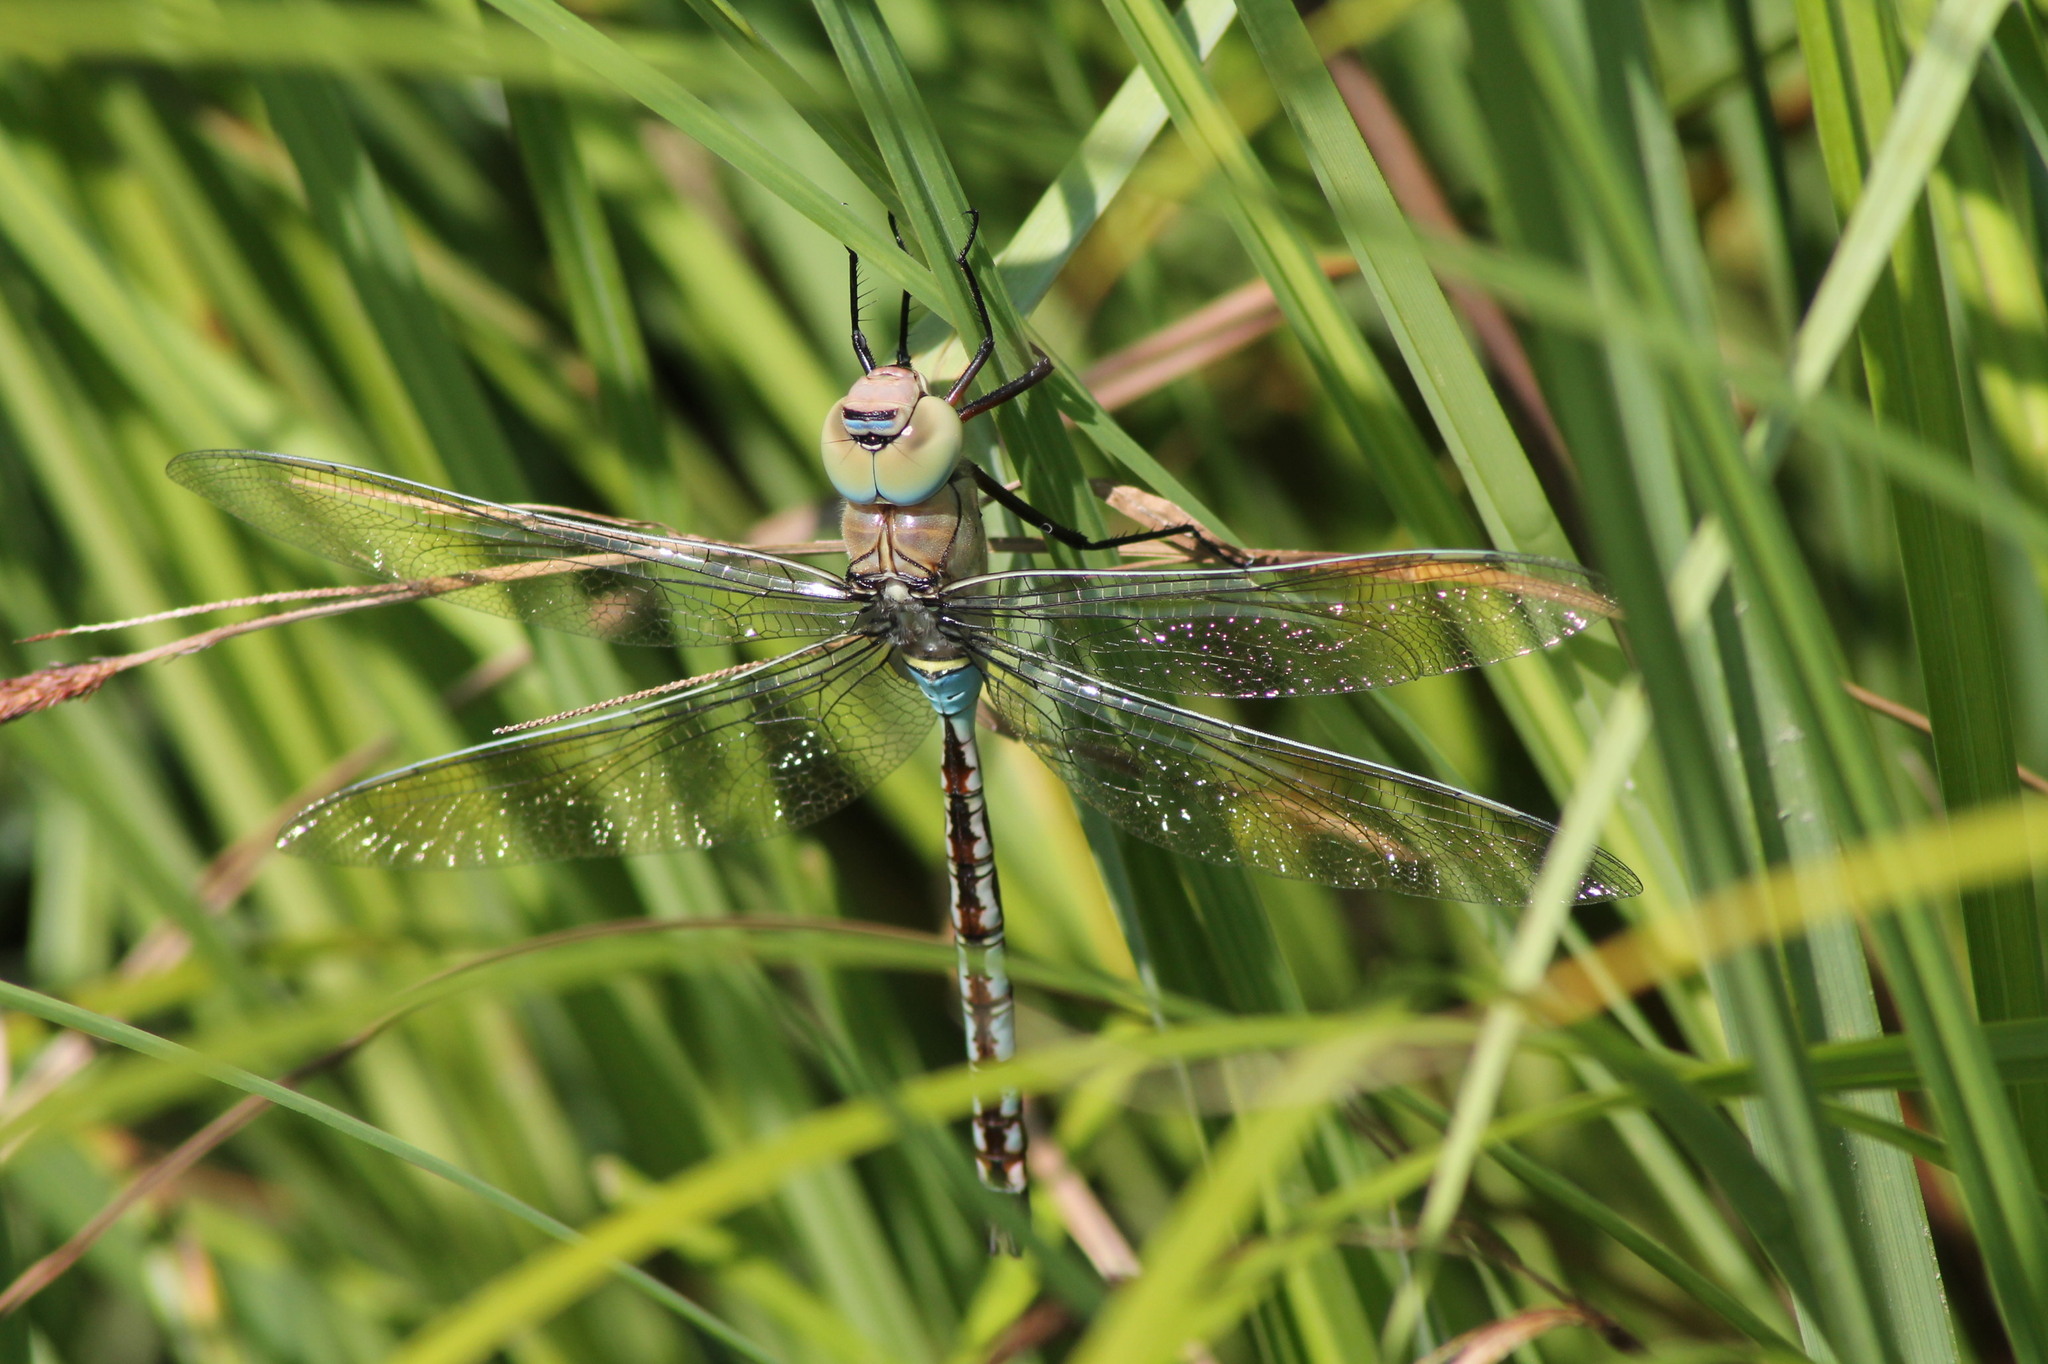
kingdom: Animalia
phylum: Arthropoda
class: Insecta
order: Odonata
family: Aeshnidae
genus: Anax
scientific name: Anax parthenope
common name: Lesser emperor
